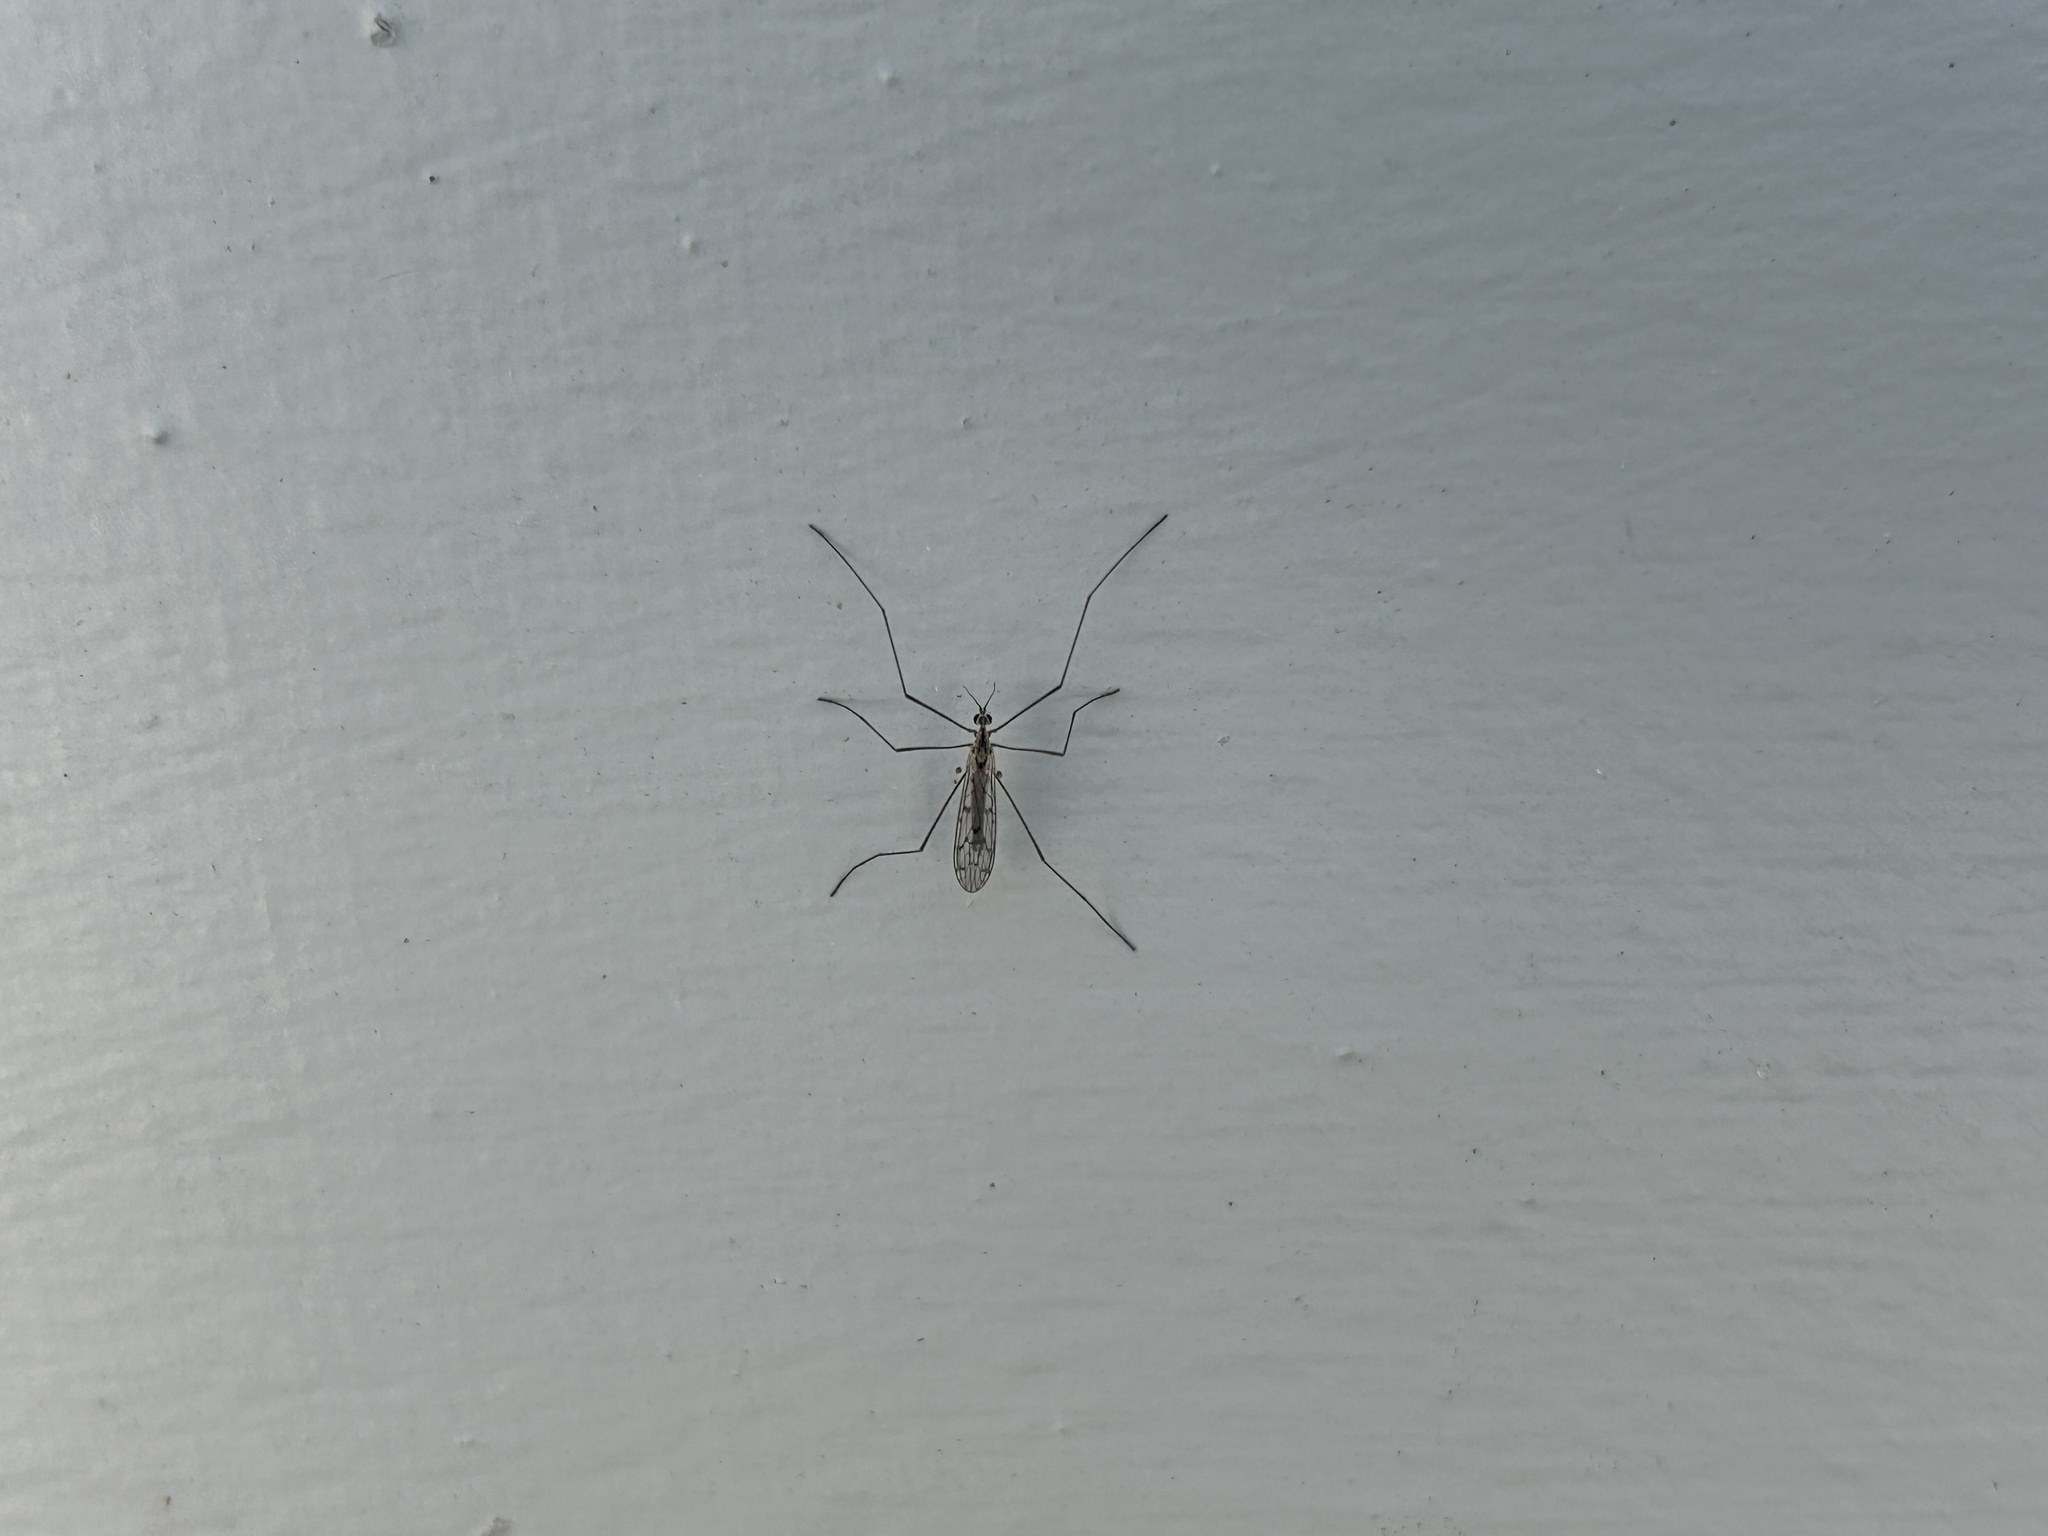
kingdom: Animalia
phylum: Arthropoda
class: Insecta
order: Diptera
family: Limoniidae
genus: Symplecta
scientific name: Symplecta cana
